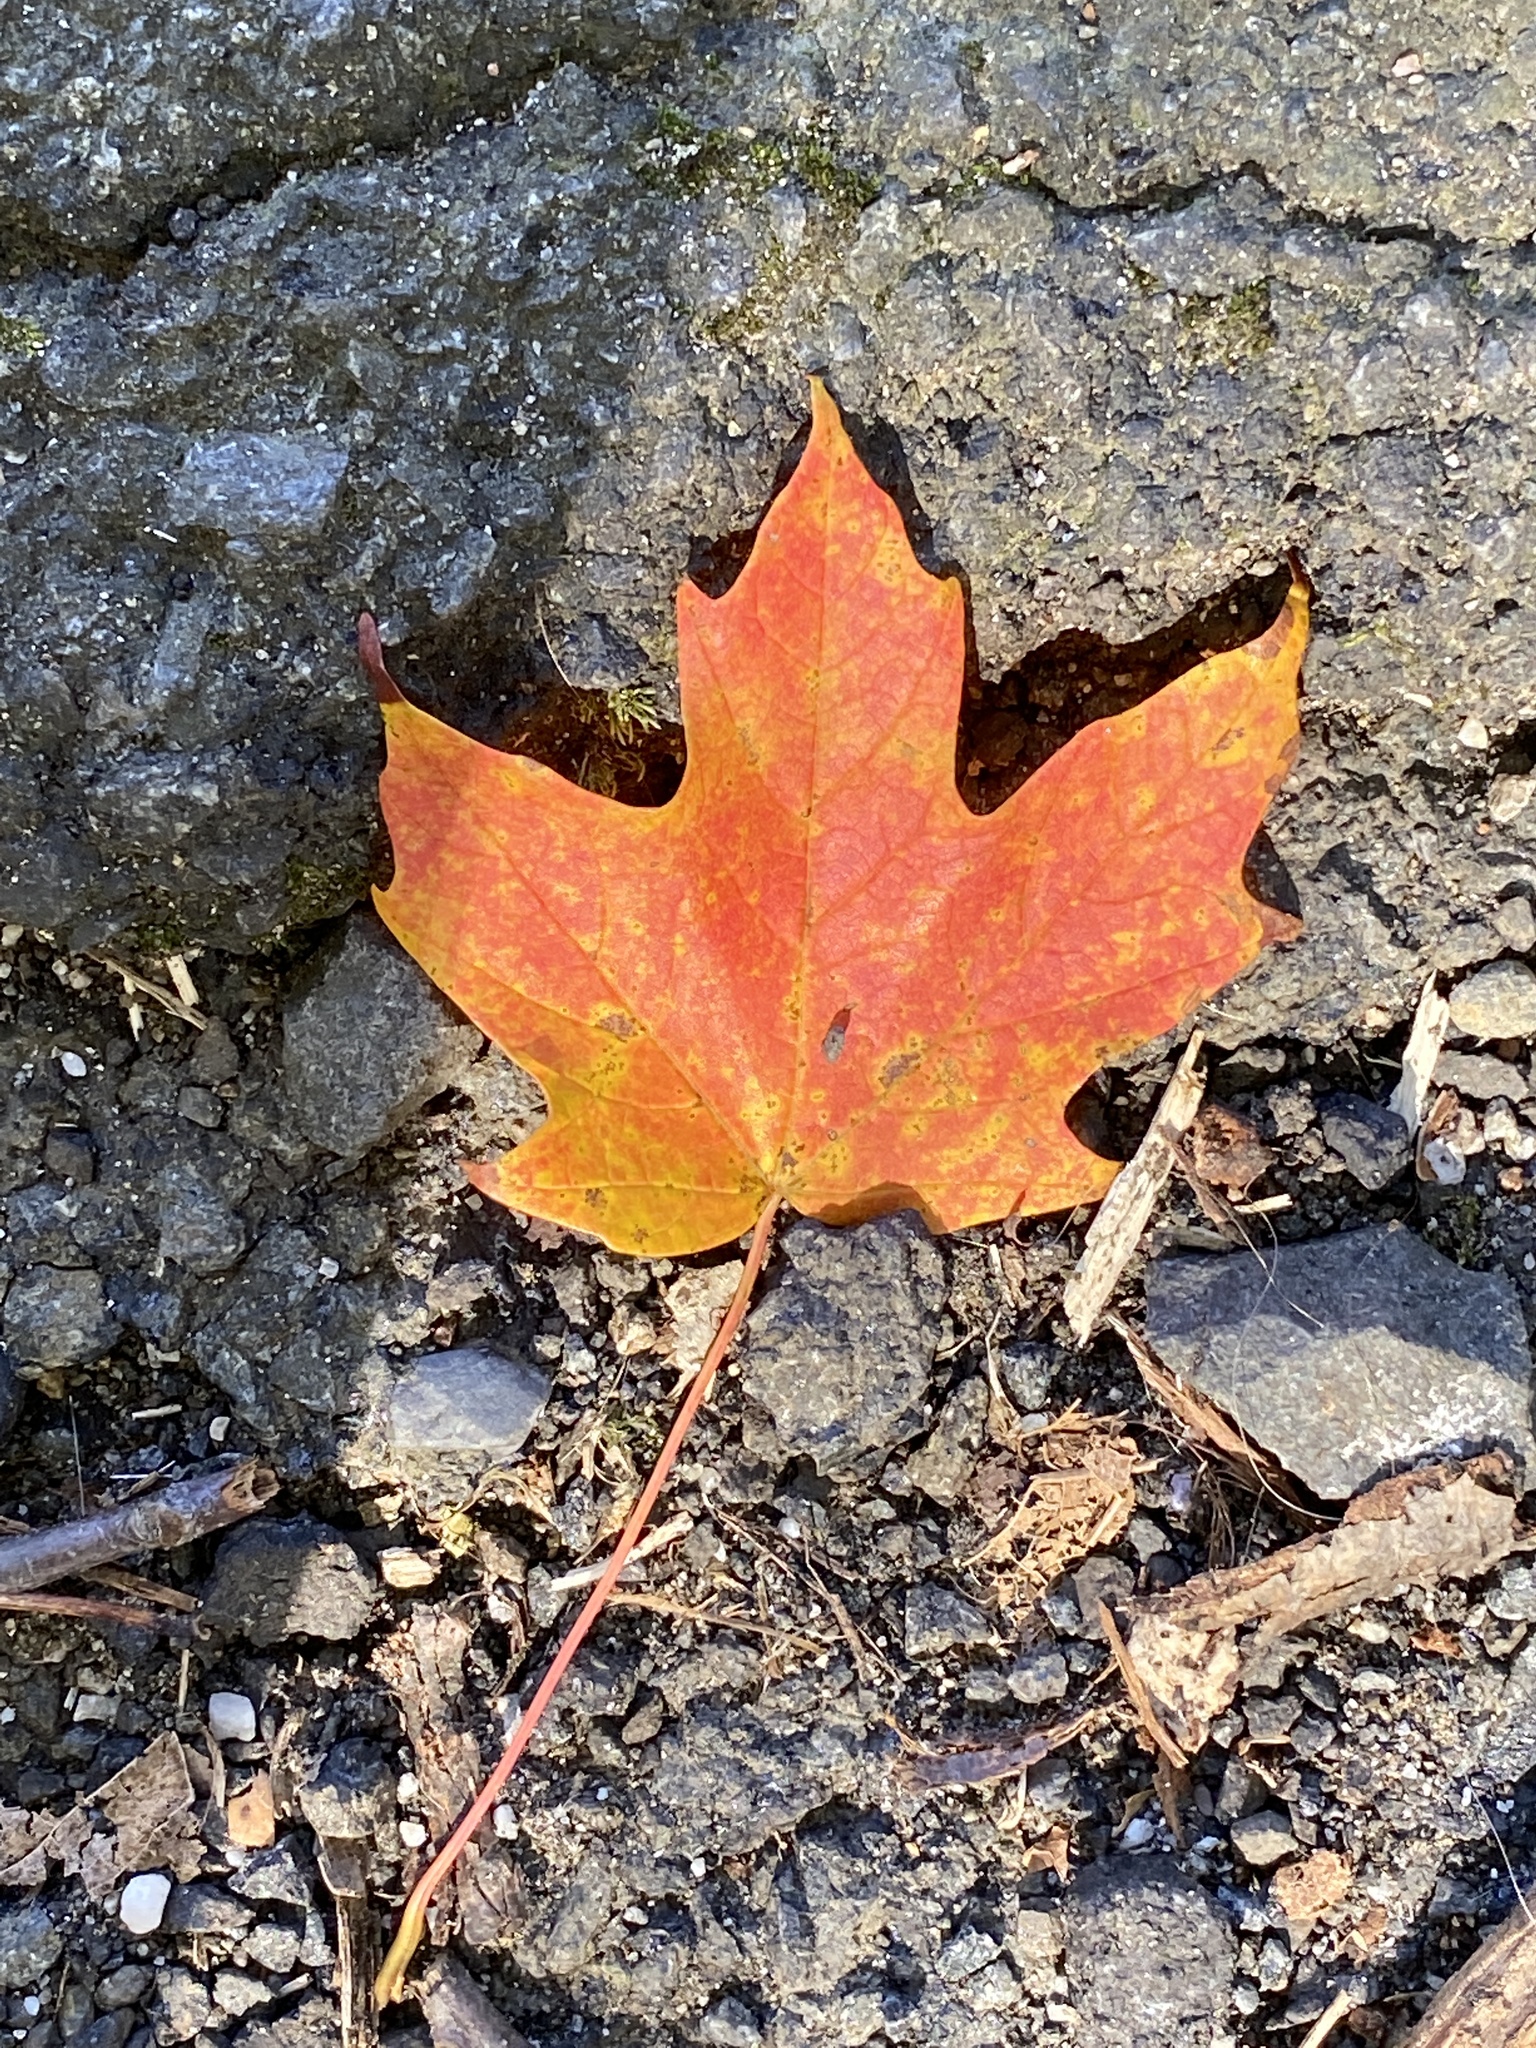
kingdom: Plantae
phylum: Tracheophyta
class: Magnoliopsida
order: Sapindales
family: Sapindaceae
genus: Acer
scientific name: Acer saccharum
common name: Sugar maple
